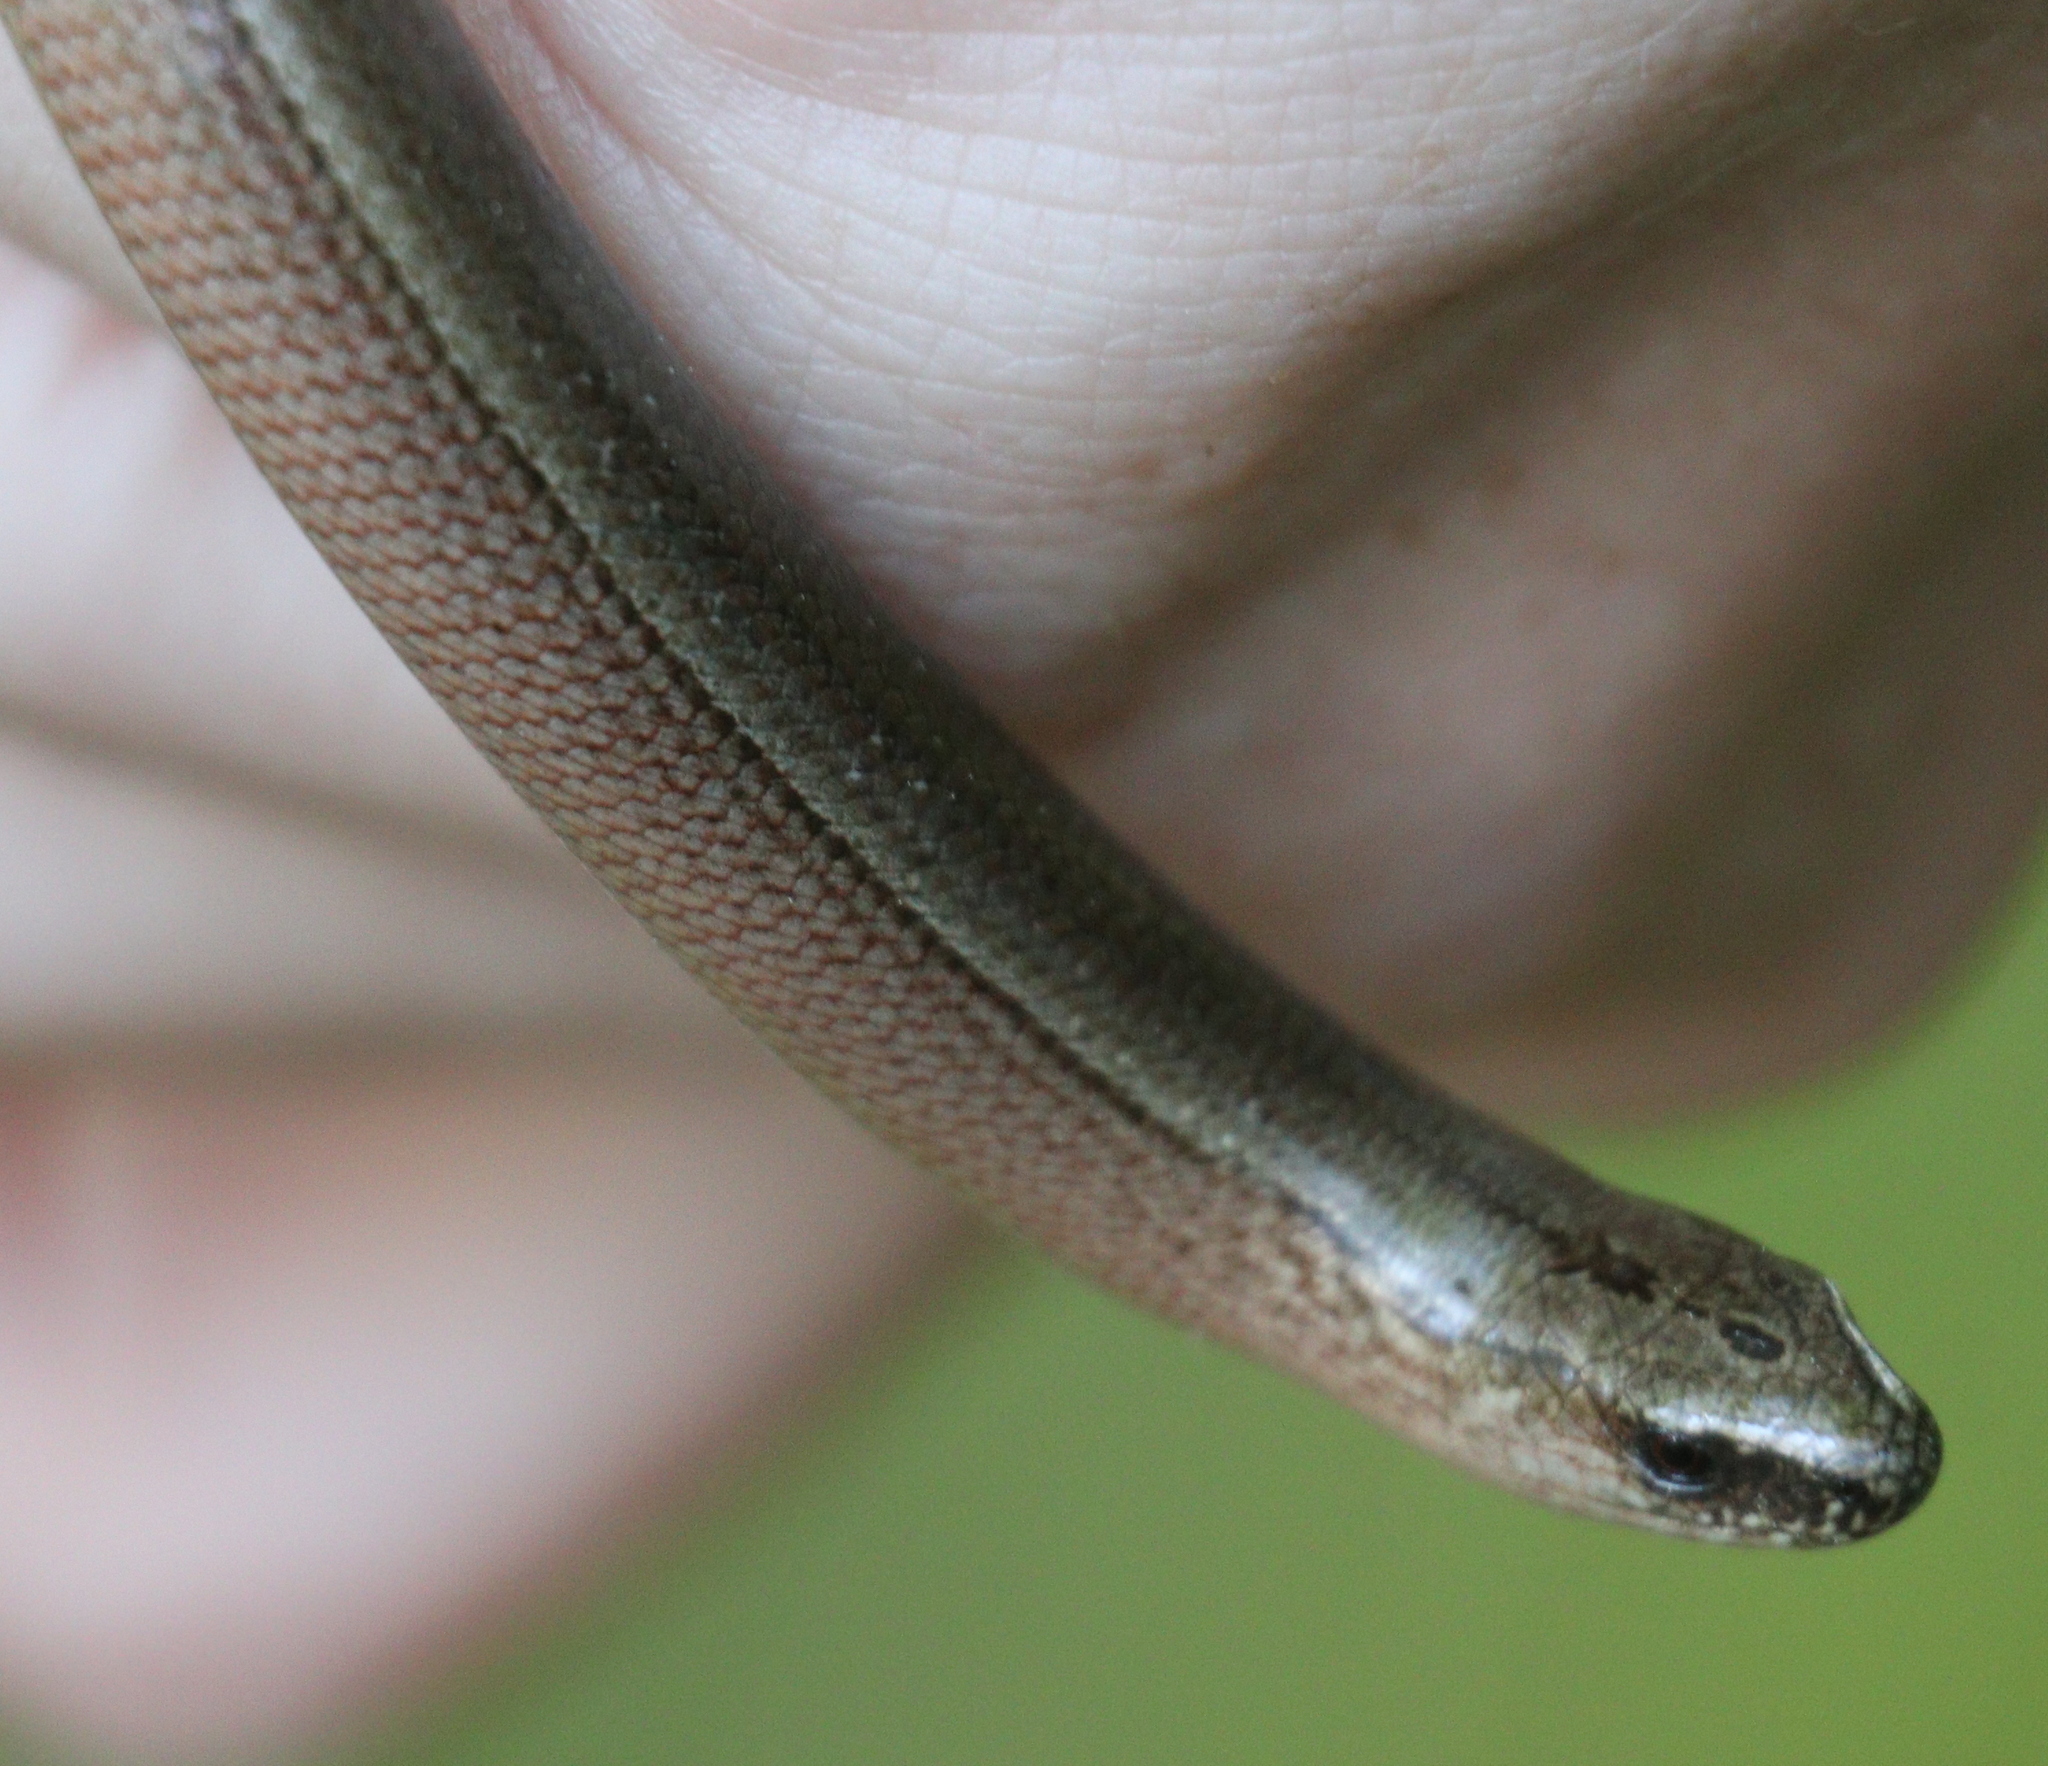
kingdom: Animalia
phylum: Chordata
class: Squamata
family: Anguidae
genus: Anguis
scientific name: Anguis fragilis
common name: Slow worm
